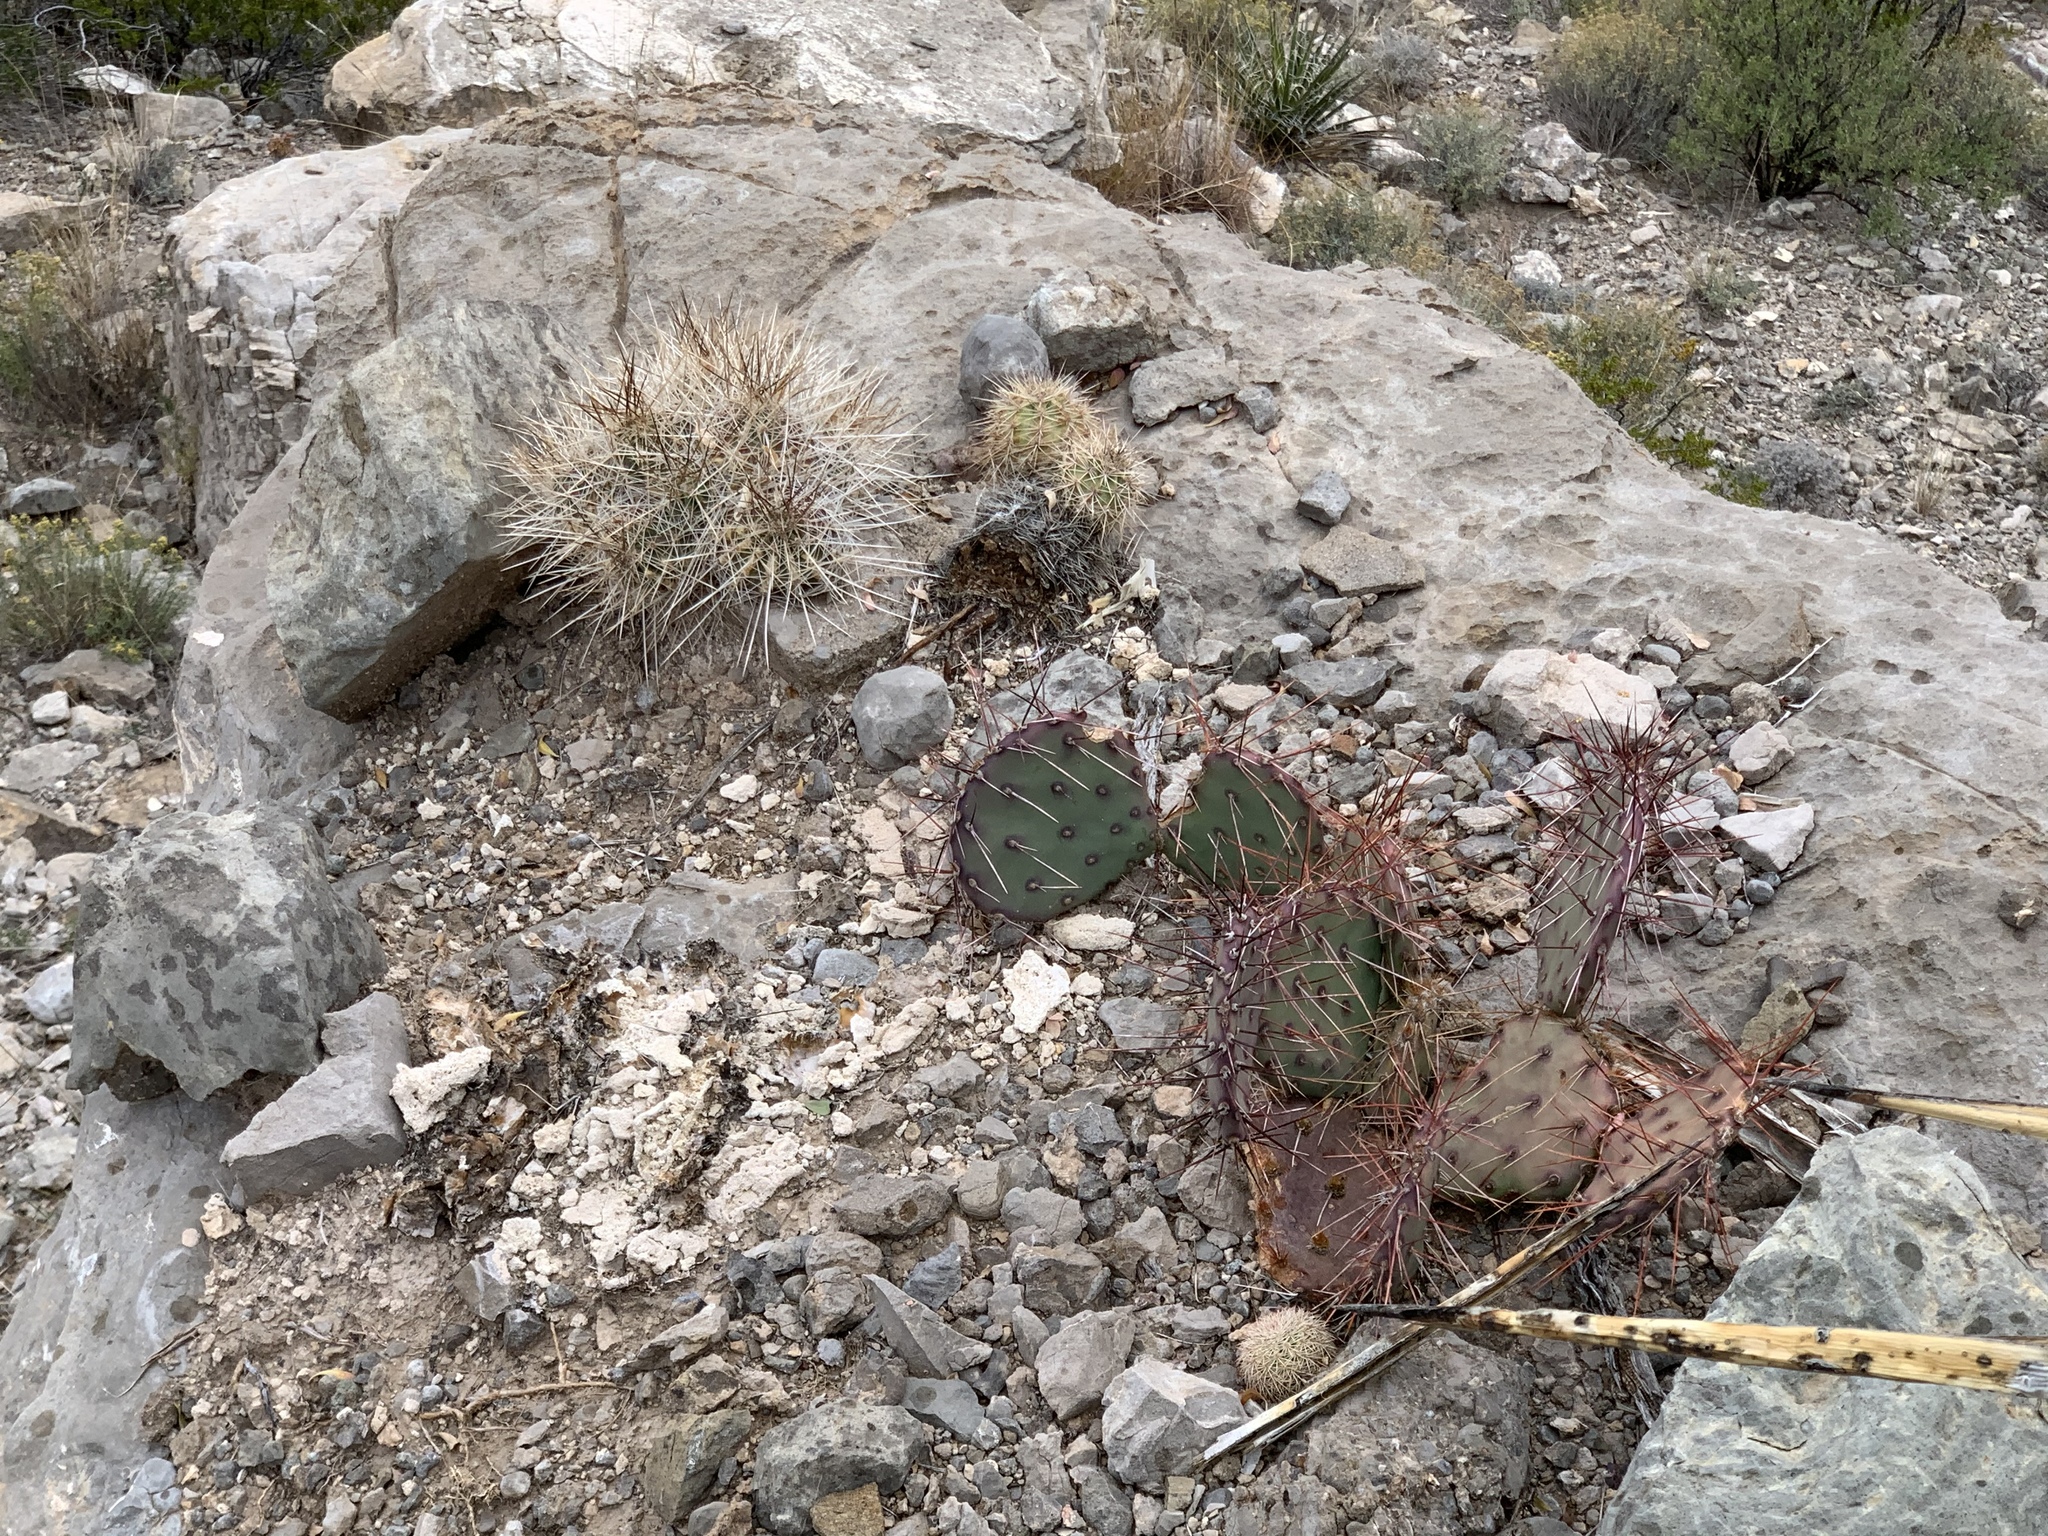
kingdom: Plantae
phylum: Tracheophyta
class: Magnoliopsida
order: Caryophyllales
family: Cactaceae
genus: Echinocereus
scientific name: Echinocereus coccineus
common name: Scarlet hedgehog cactus
